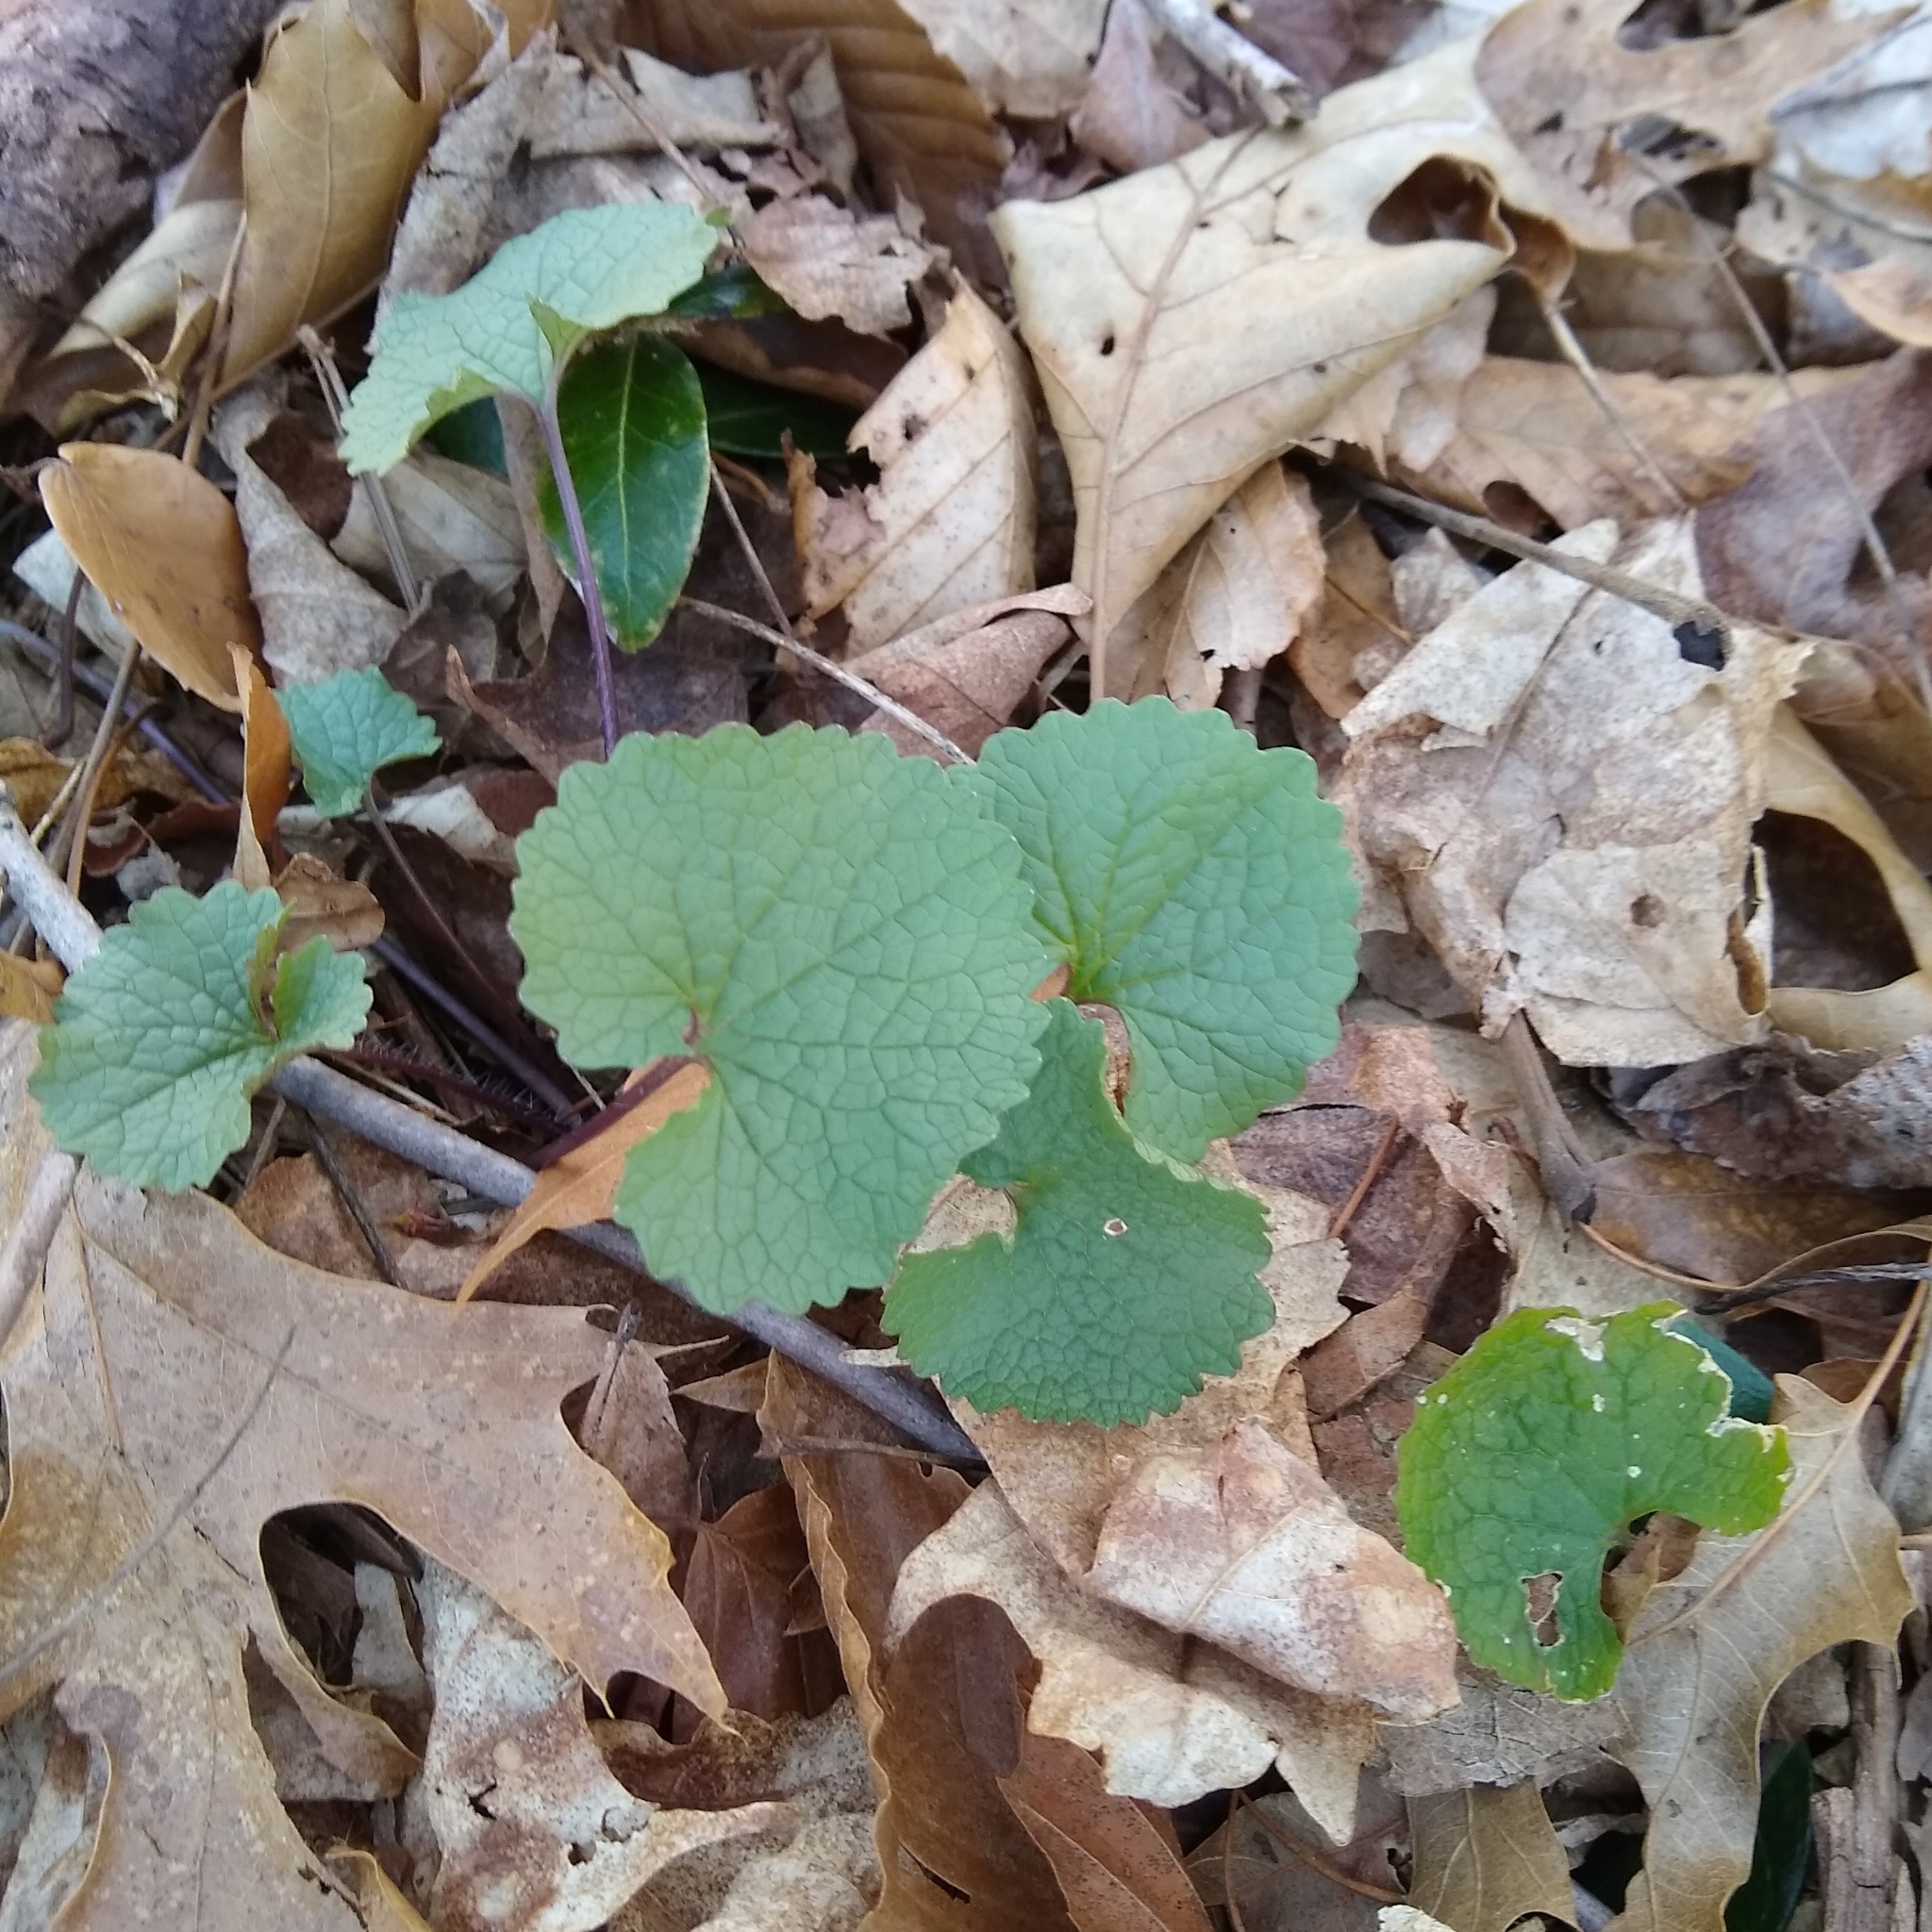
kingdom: Plantae
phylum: Tracheophyta
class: Magnoliopsida
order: Brassicales
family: Brassicaceae
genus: Alliaria
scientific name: Alliaria petiolata
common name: Garlic mustard
